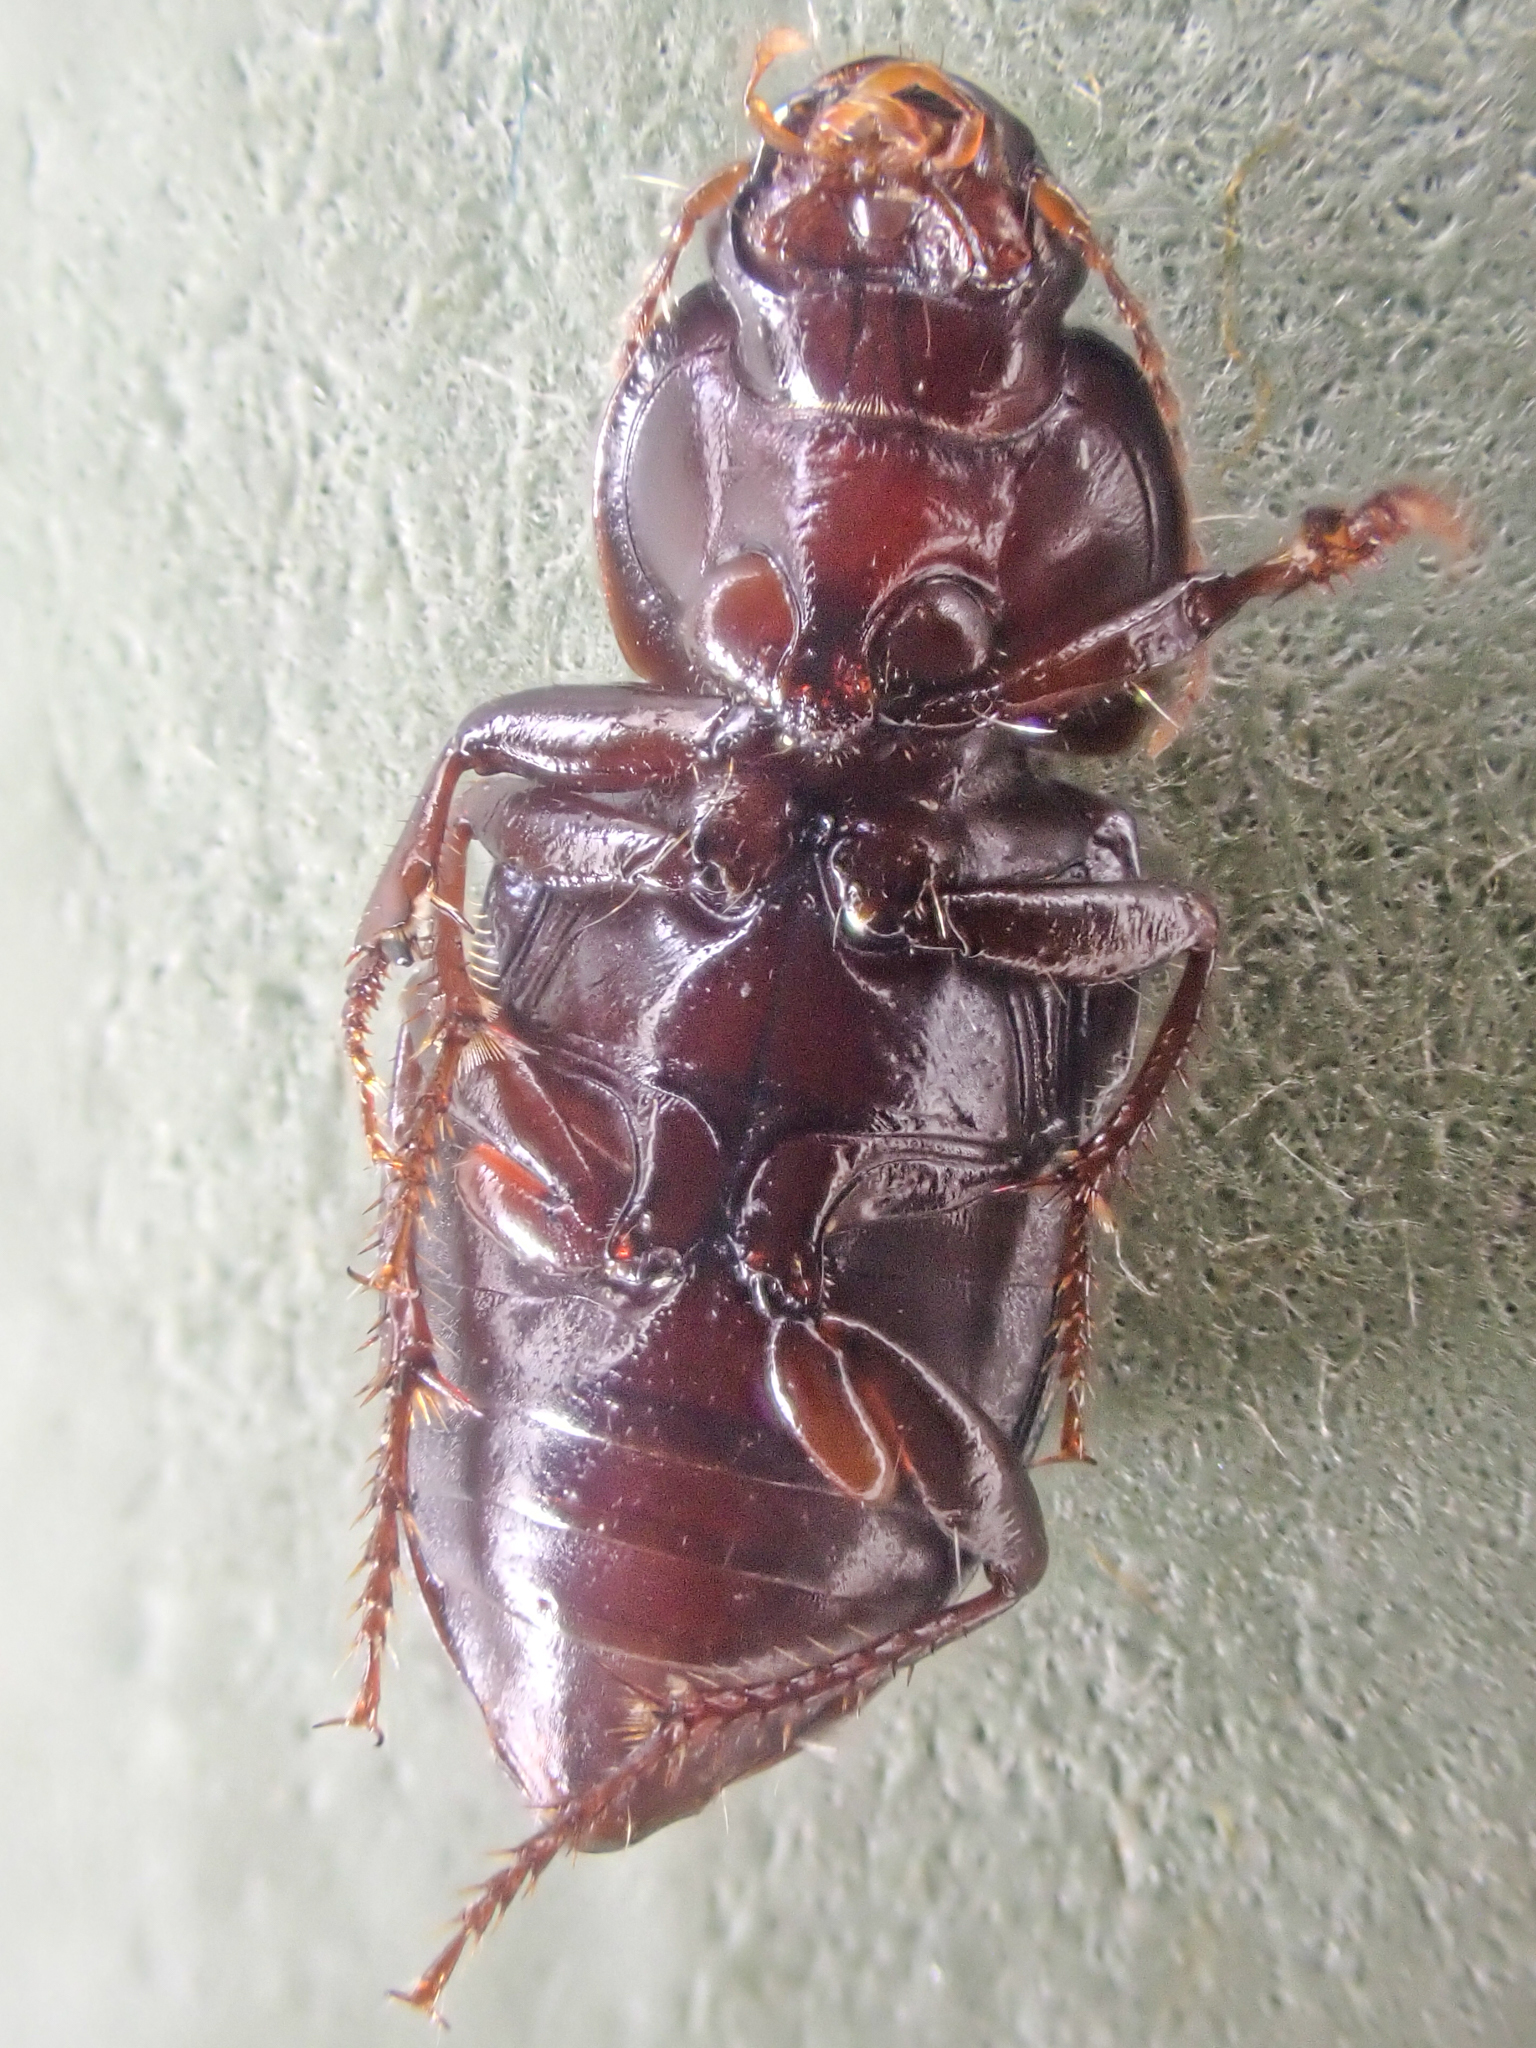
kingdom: Animalia
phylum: Arthropoda
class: Insecta
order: Coleoptera
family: Carabidae
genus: Discoderus
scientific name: Discoderus parallelus
